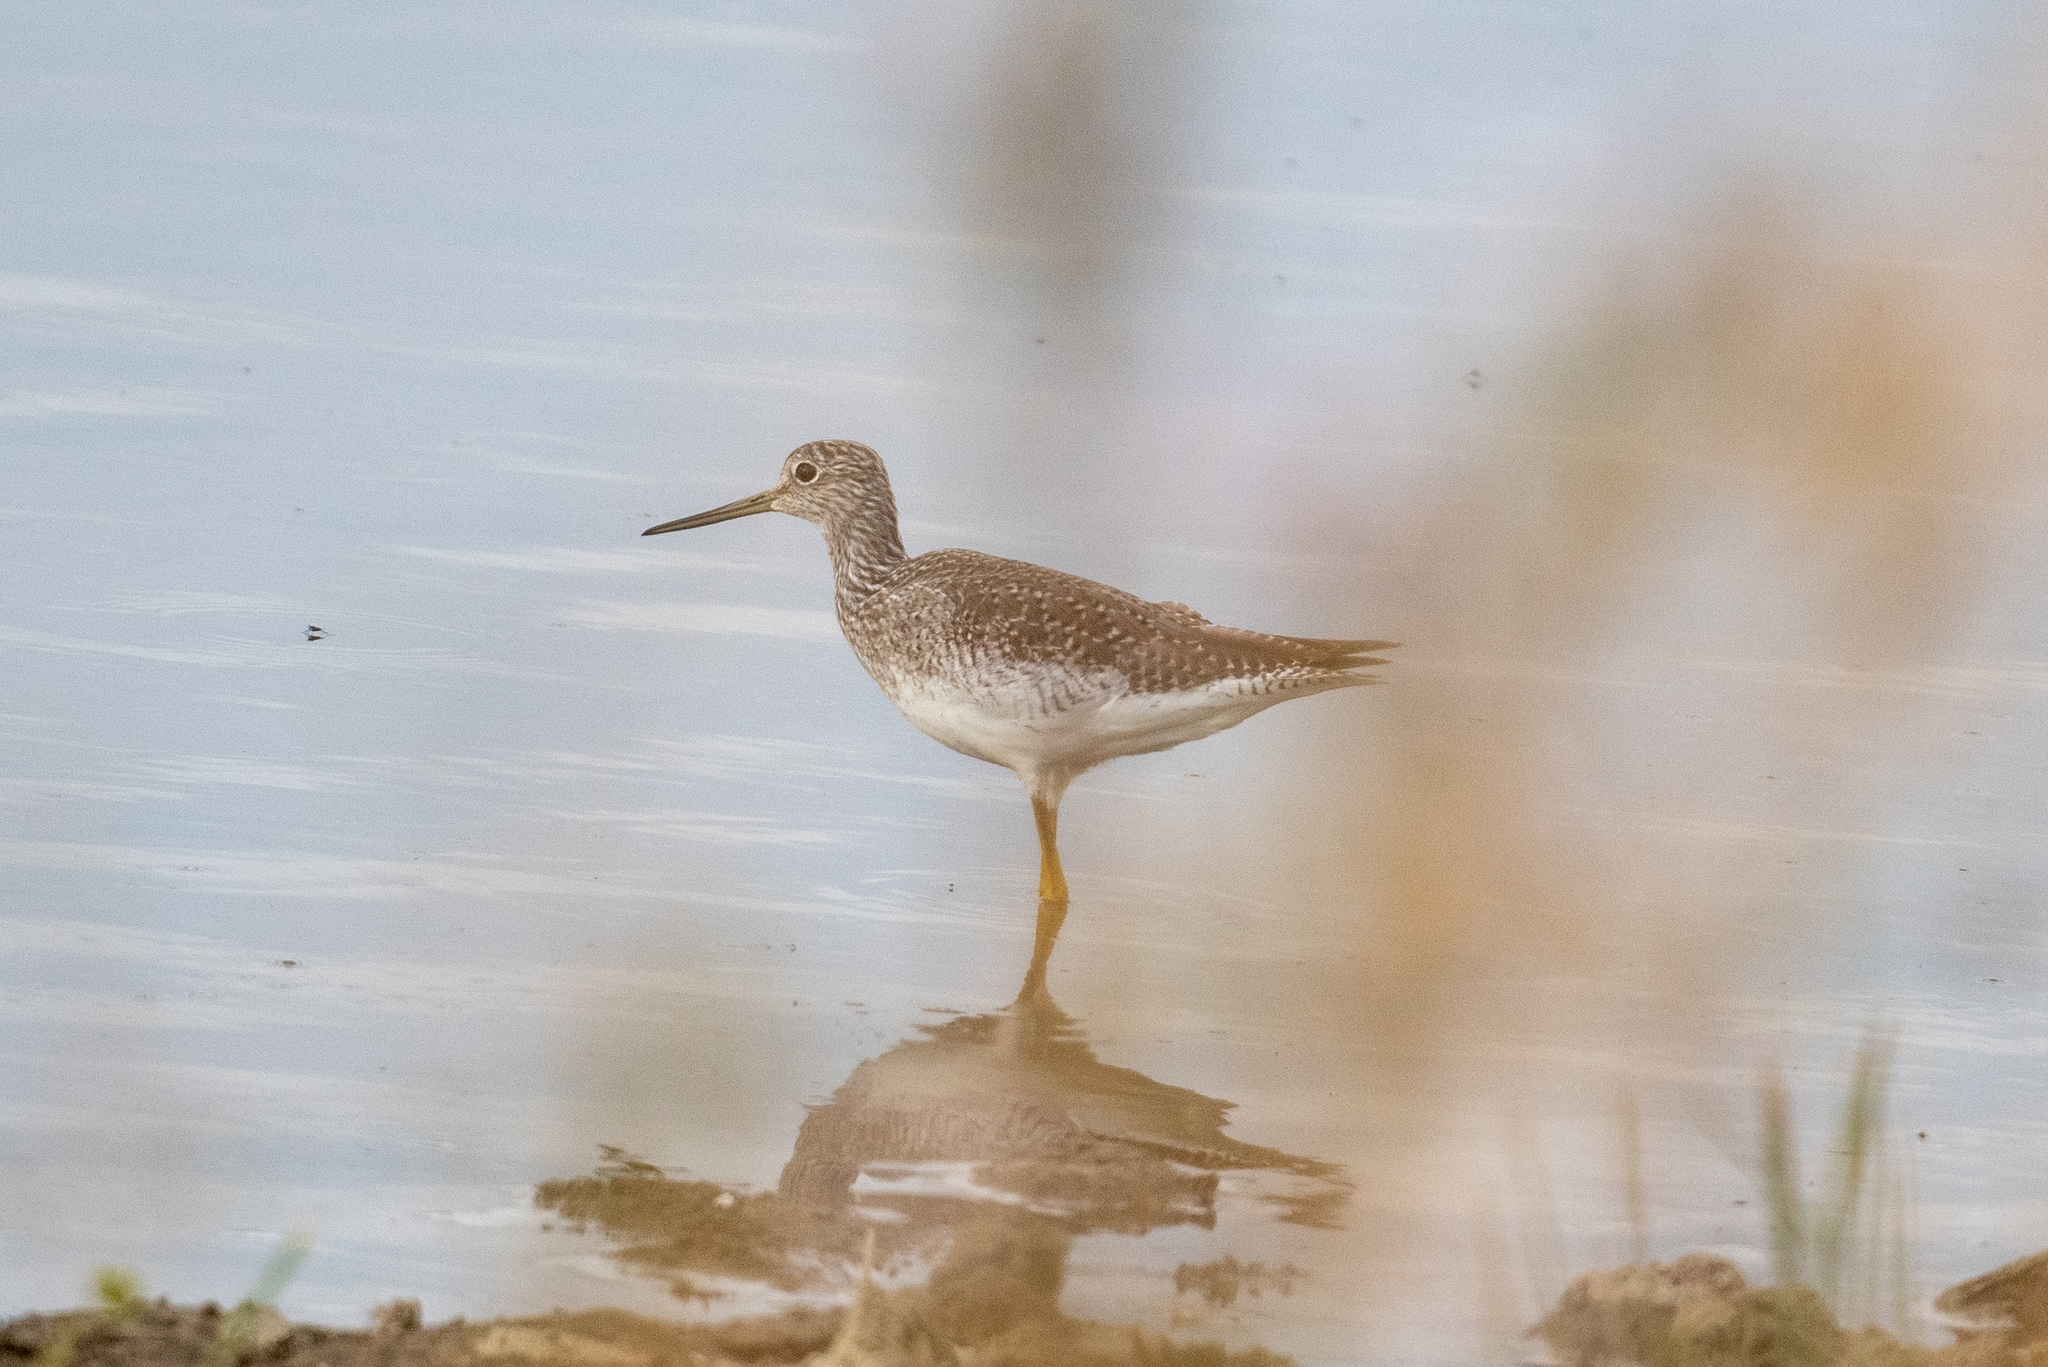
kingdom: Animalia
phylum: Chordata
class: Aves
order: Charadriiformes
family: Scolopacidae
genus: Tringa
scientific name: Tringa melanoleuca
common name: Greater yellowlegs
